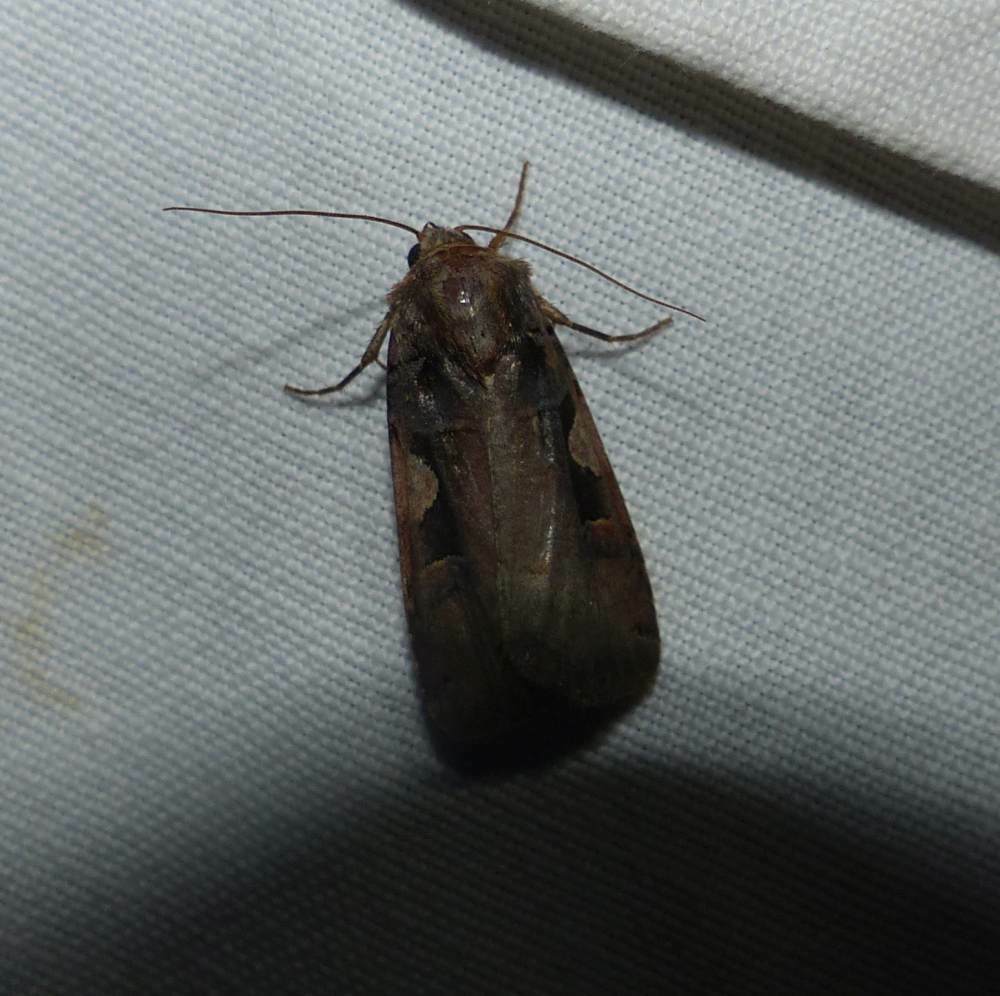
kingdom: Animalia
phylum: Arthropoda
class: Insecta
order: Lepidoptera
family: Noctuidae
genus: Xestia
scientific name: Xestia
